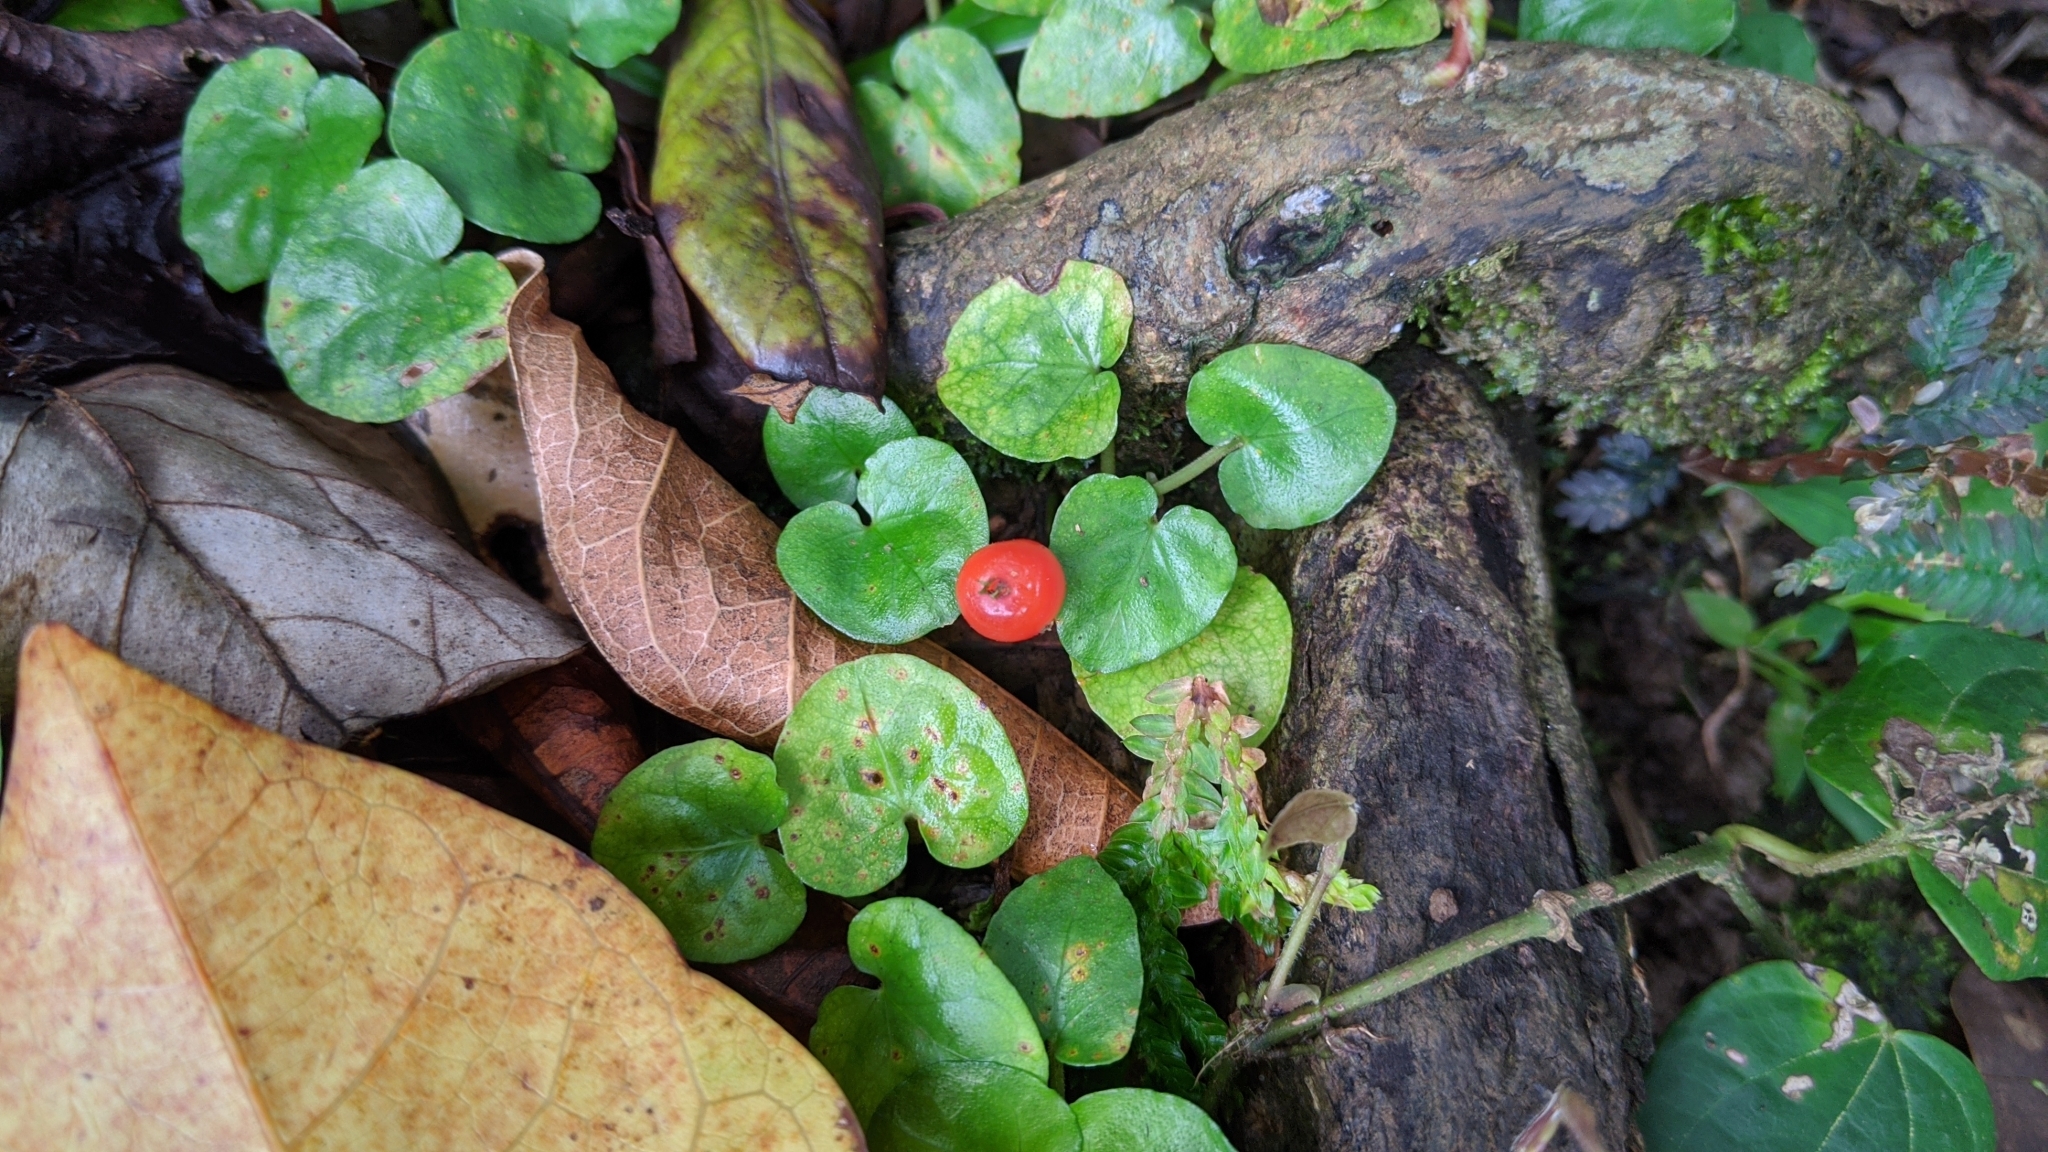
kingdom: Plantae
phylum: Tracheophyta
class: Magnoliopsida
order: Gentianales
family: Rubiaceae
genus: Geophila
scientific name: Geophila herbacea
